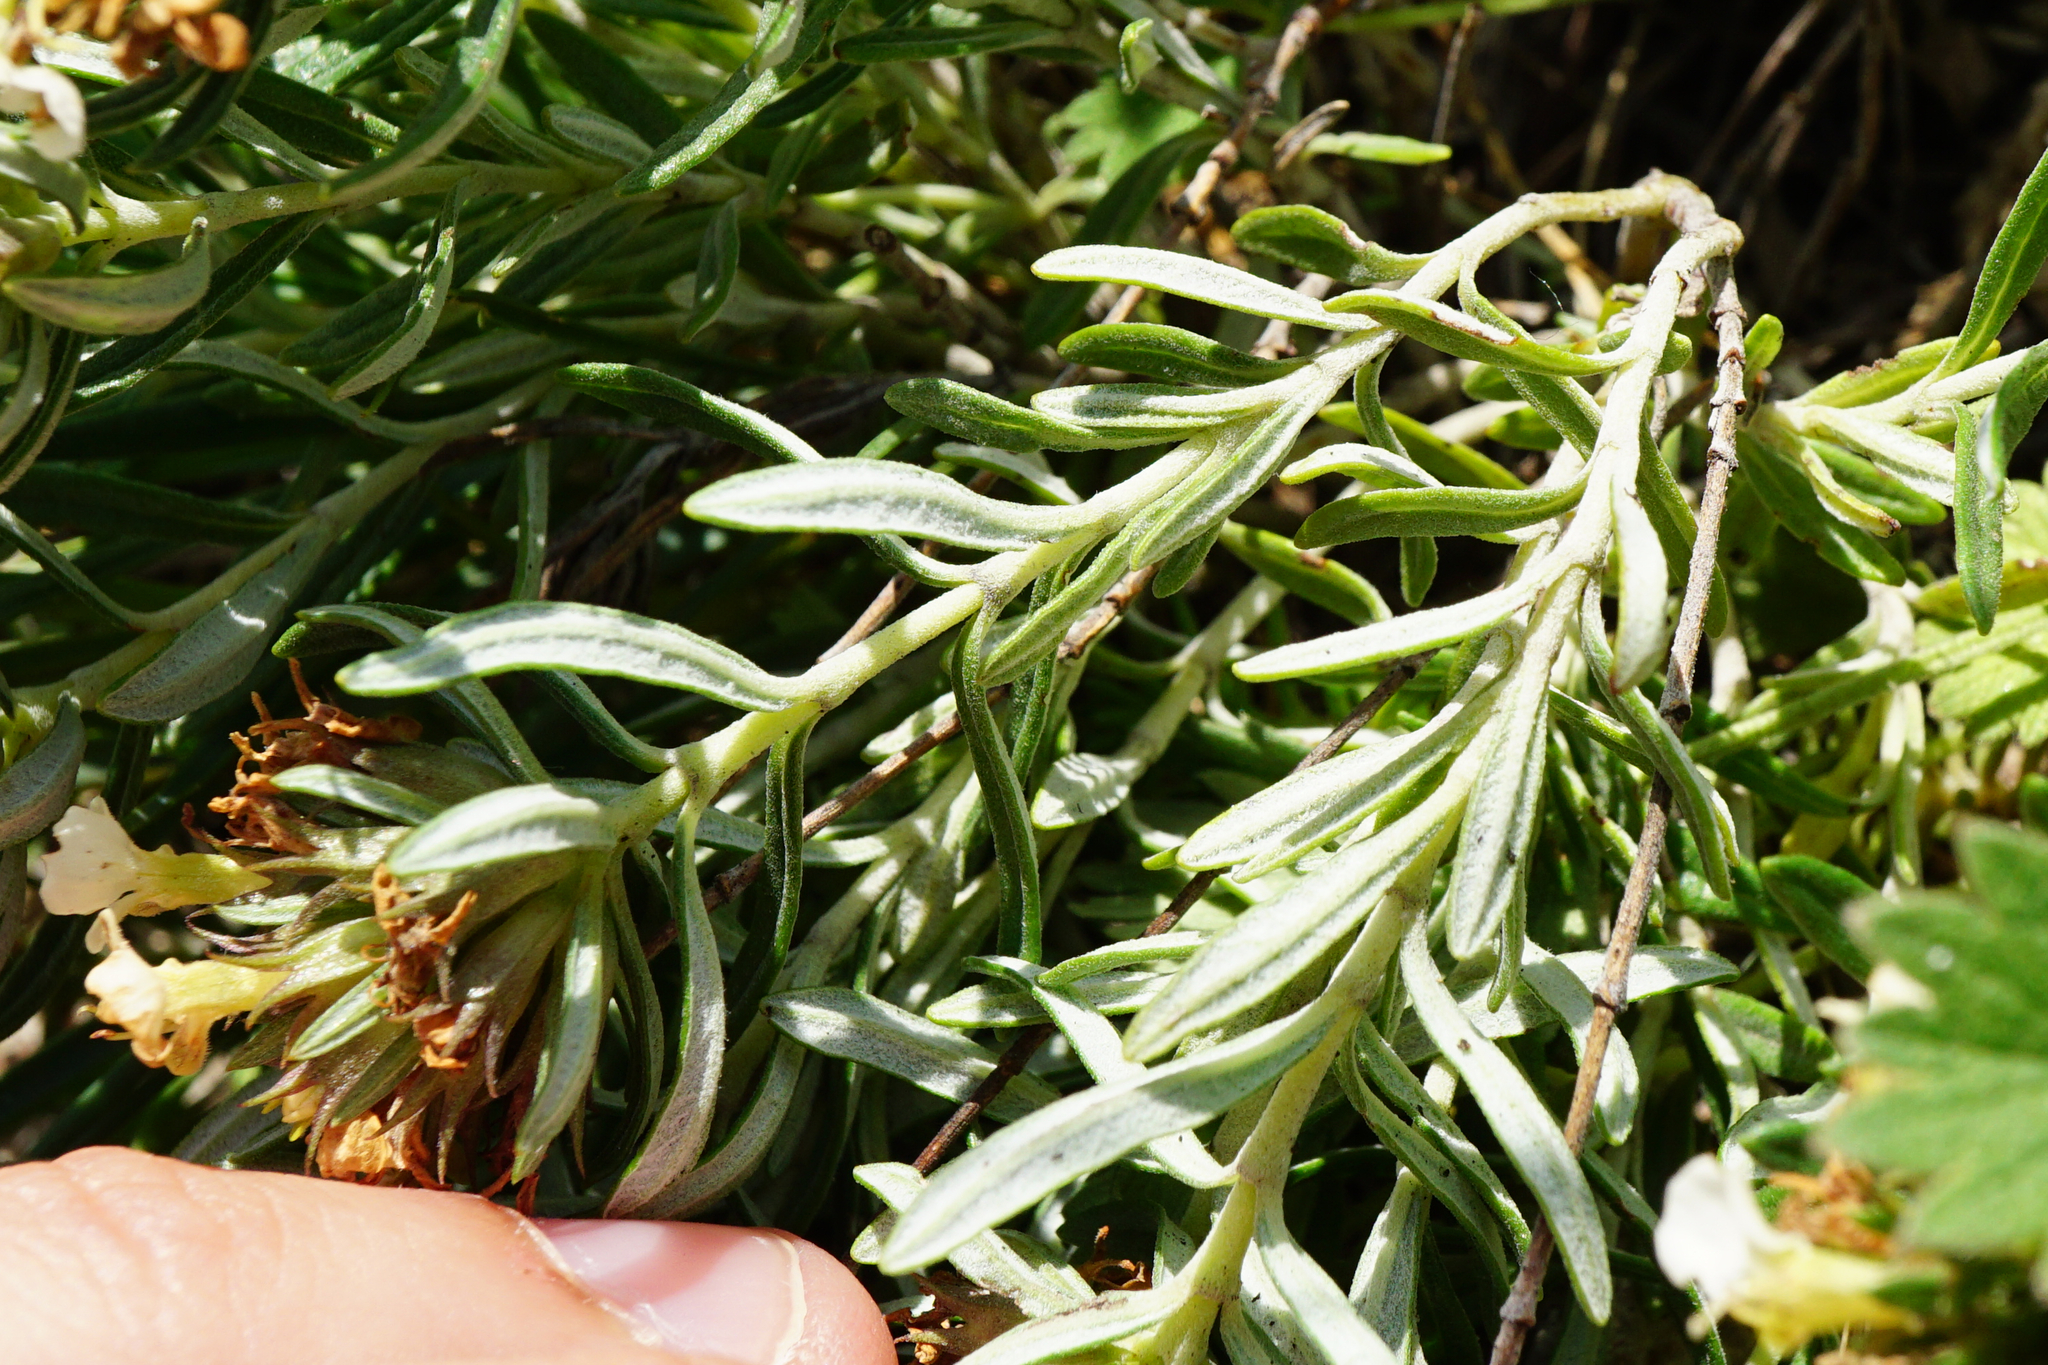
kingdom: Plantae
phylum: Tracheophyta
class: Magnoliopsida
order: Lamiales
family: Lamiaceae
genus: Teucrium
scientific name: Teucrium montanum
